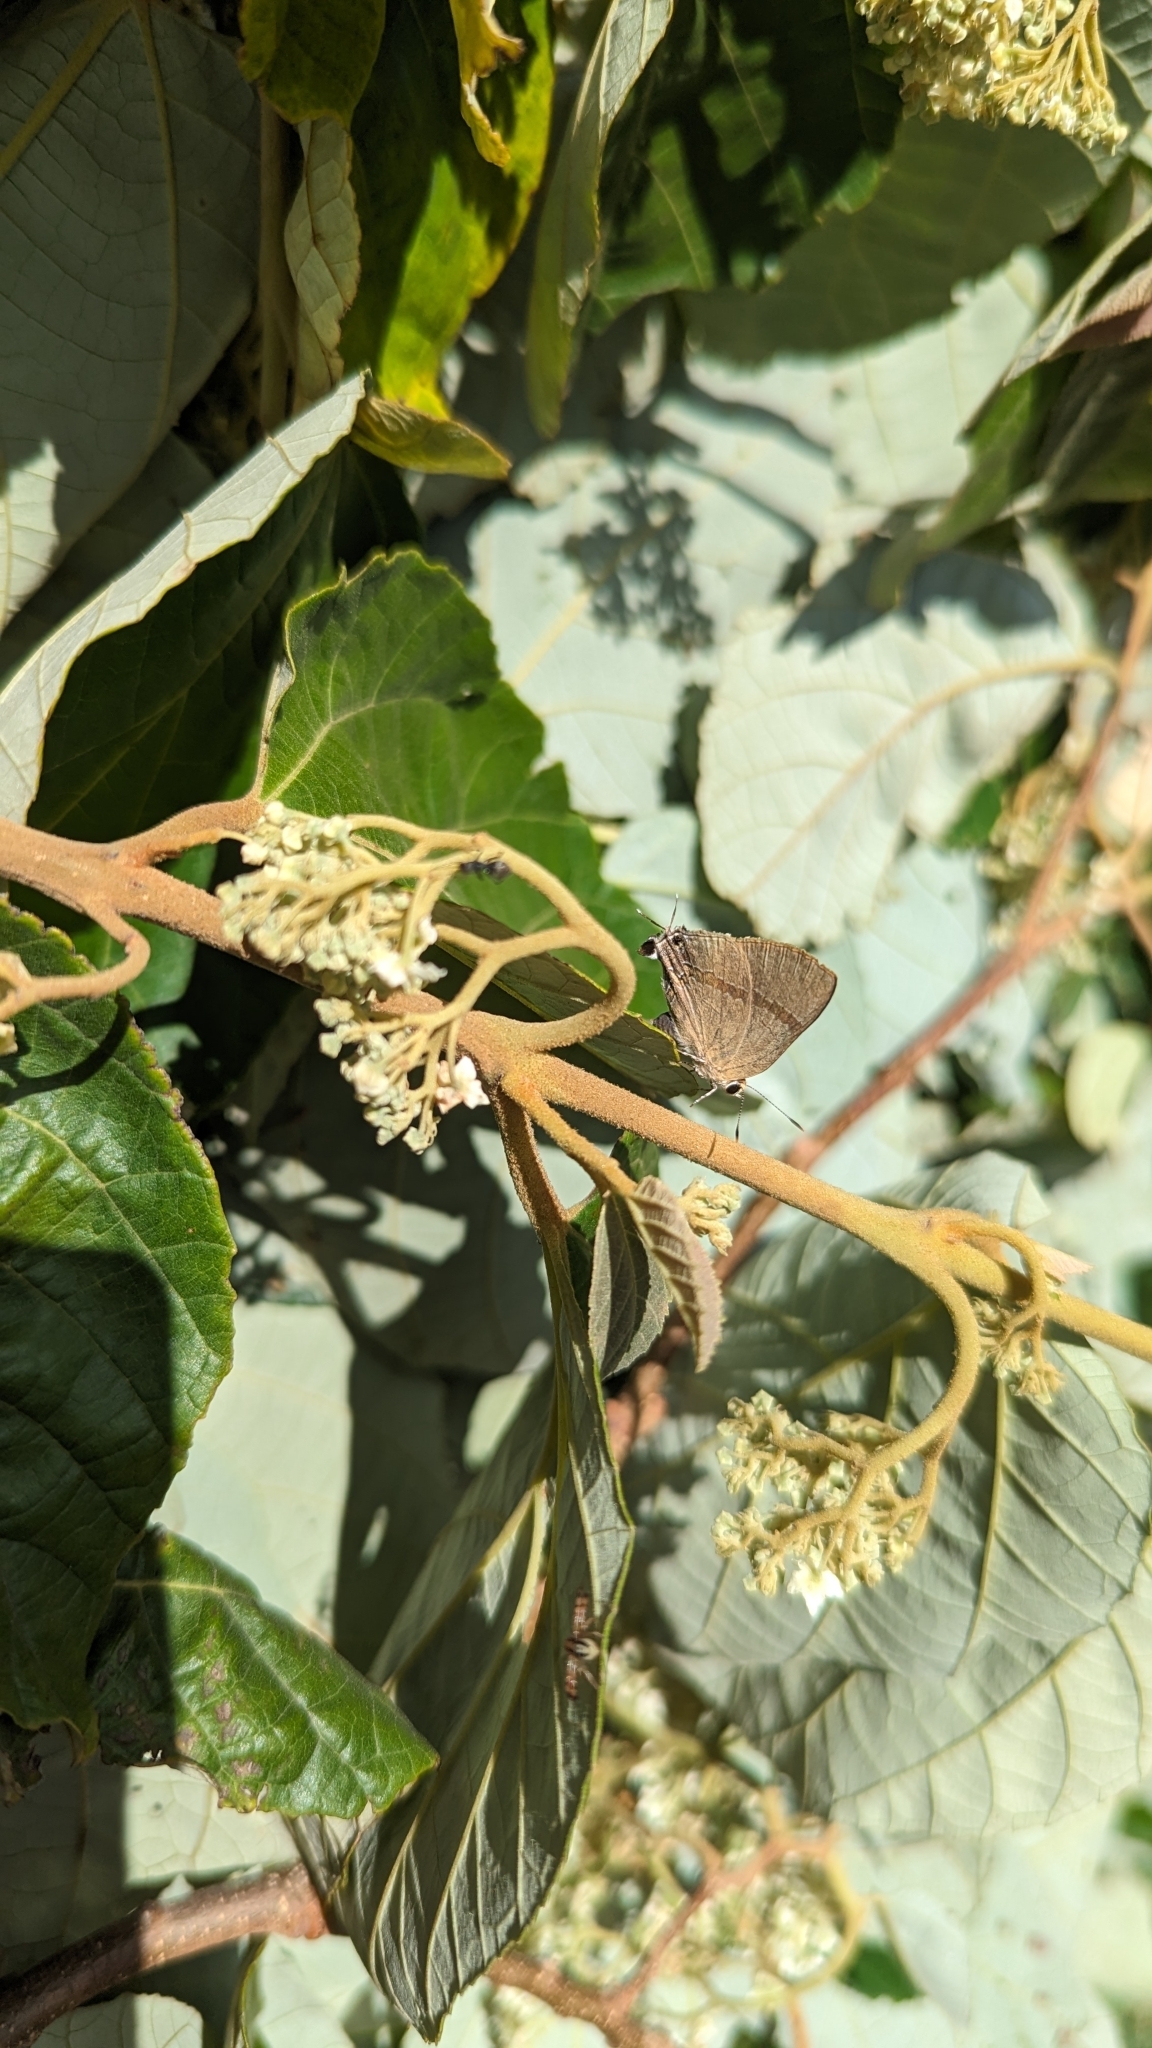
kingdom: Animalia
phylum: Arthropoda
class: Insecta
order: Lepidoptera
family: Lycaenidae
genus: Rapala
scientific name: Rapala varuna
